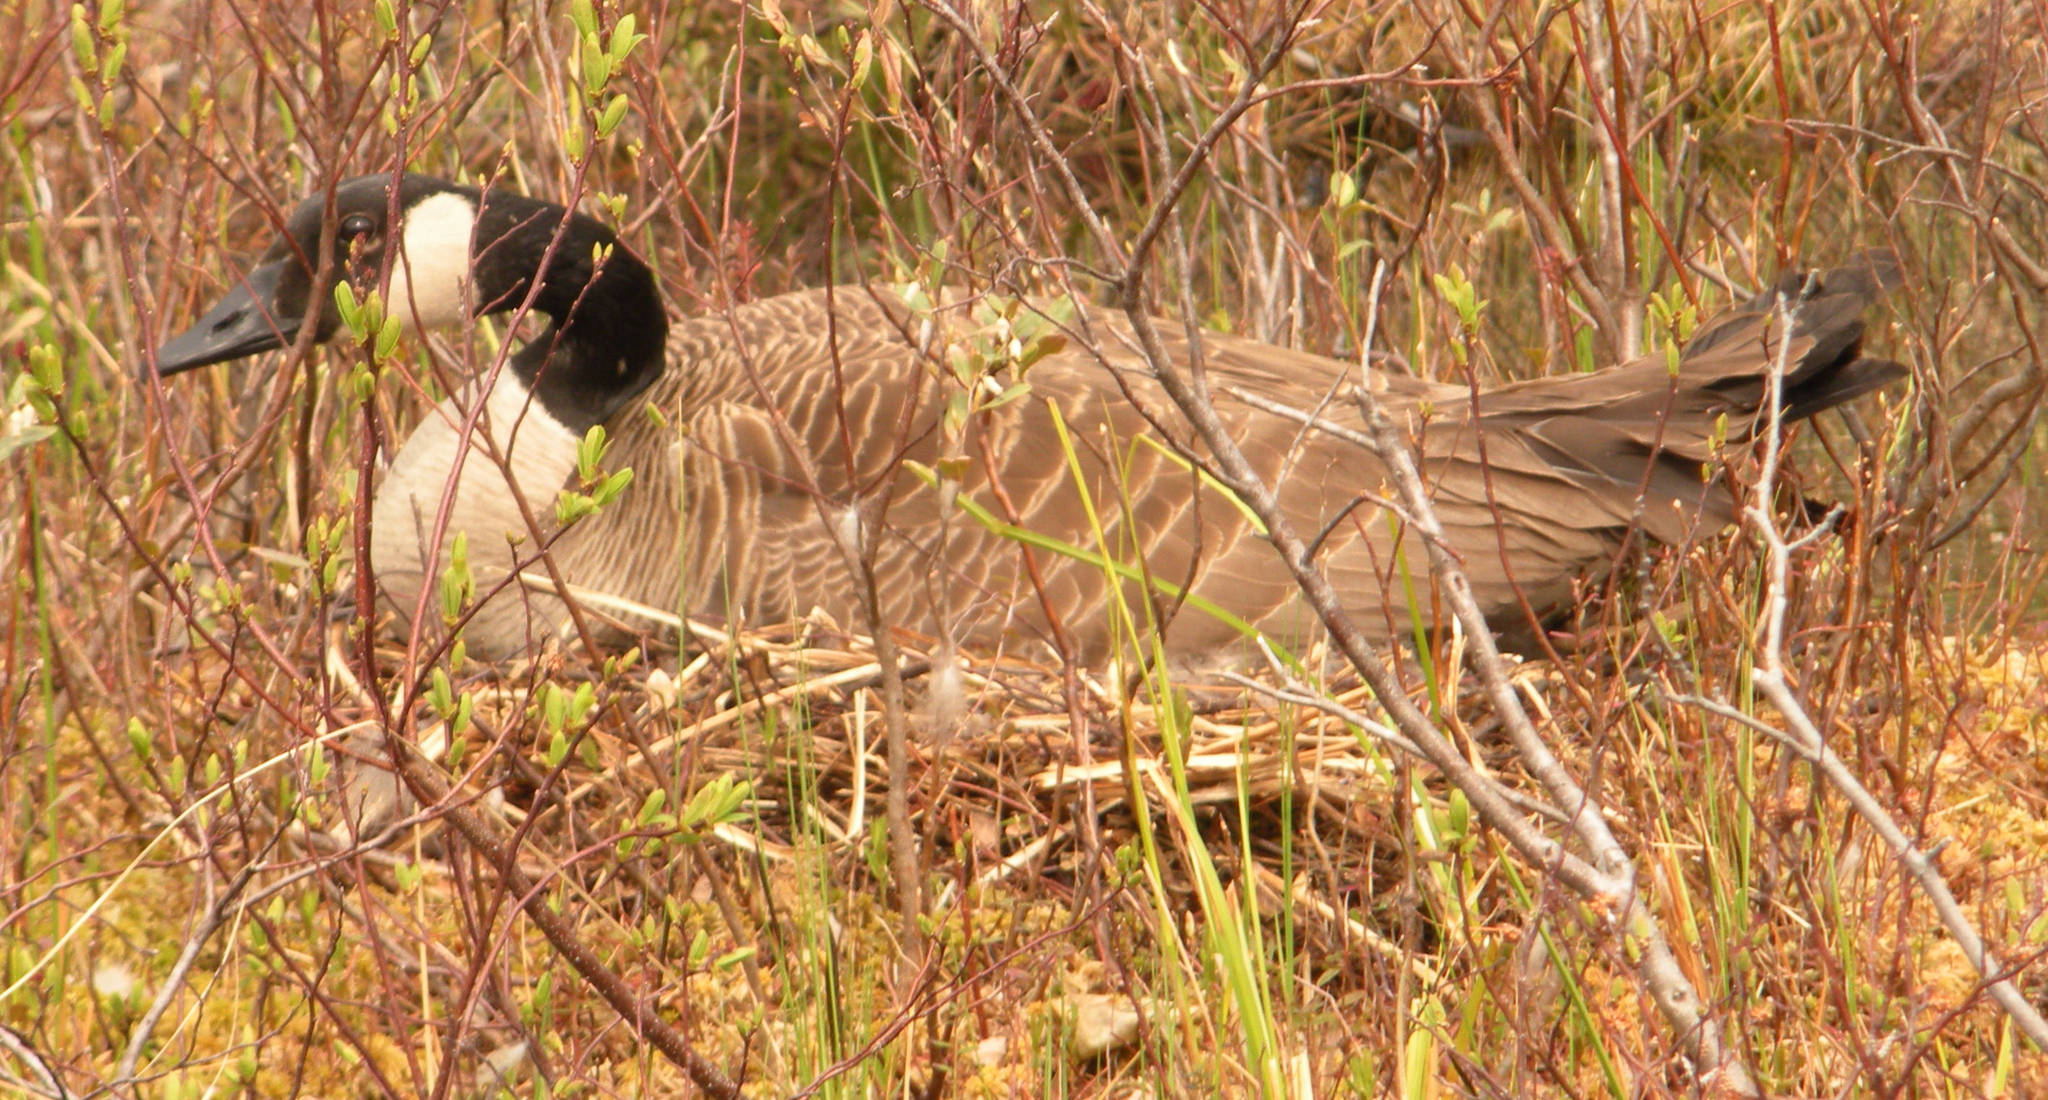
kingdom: Animalia
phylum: Chordata
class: Aves
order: Anseriformes
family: Anatidae
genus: Branta
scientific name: Branta canadensis
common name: Canada goose
